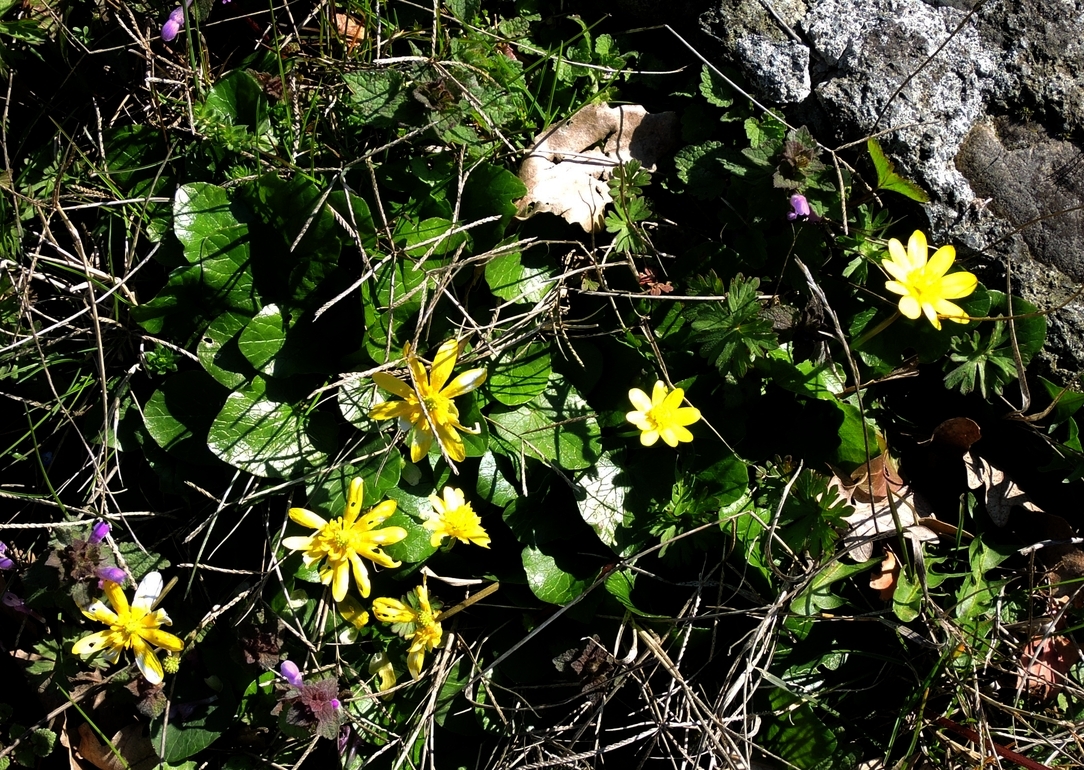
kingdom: Plantae
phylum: Tracheophyta
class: Magnoliopsida
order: Ranunculales
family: Ranunculaceae
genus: Ficaria
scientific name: Ficaria verna
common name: Lesser celandine
